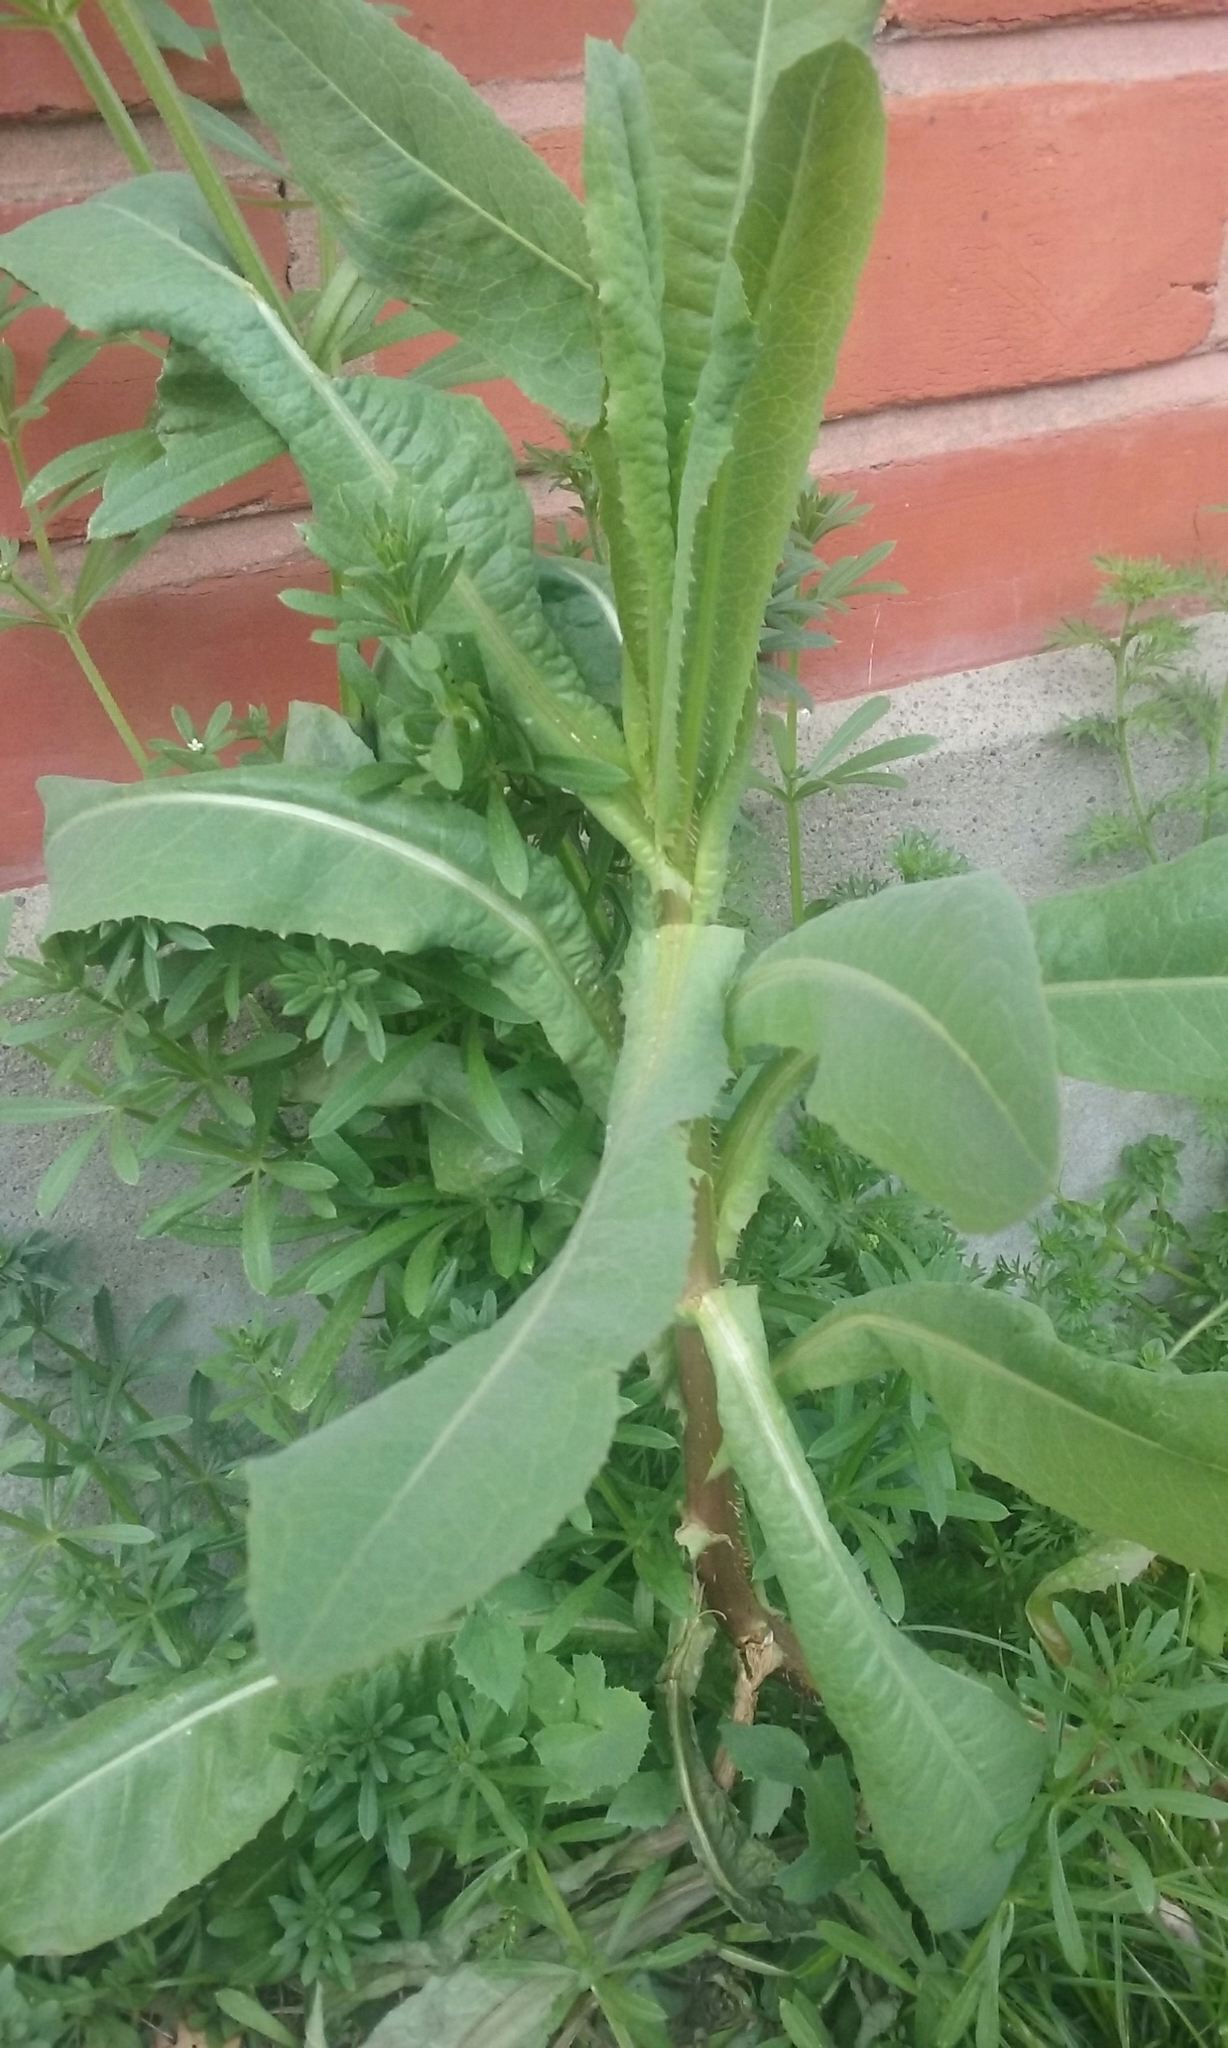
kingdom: Plantae
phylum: Tracheophyta
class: Magnoliopsida
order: Asterales
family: Asteraceae
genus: Lactuca
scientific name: Lactuca serriola
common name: Prickly lettuce
